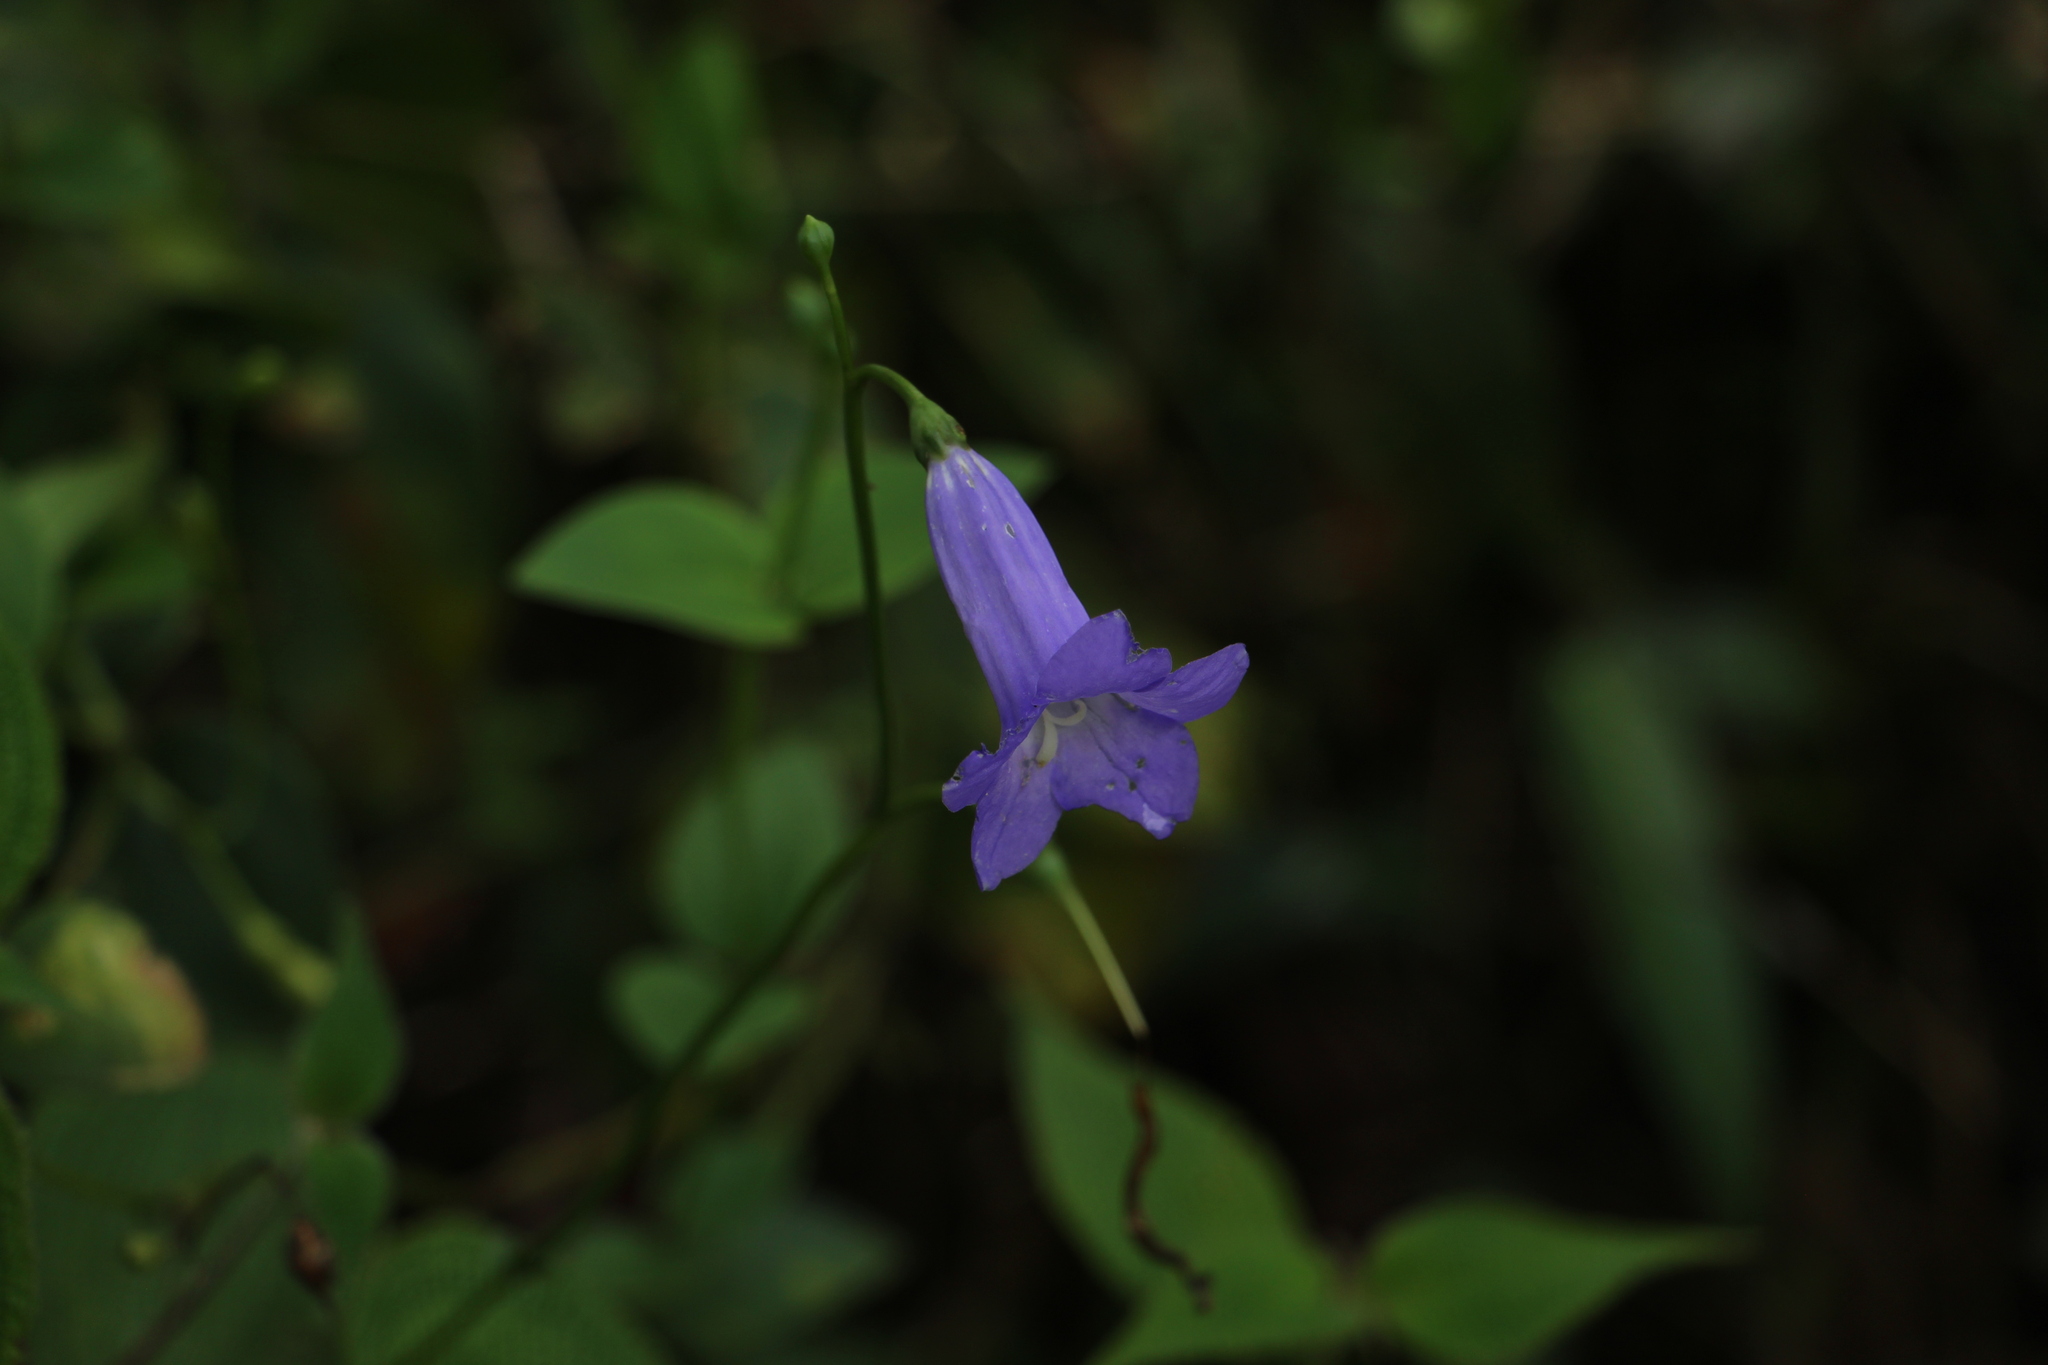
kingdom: Plantae
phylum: Tracheophyta
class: Magnoliopsida
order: Gentianales
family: Gentianaceae
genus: Chelonanthus
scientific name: Chelonanthus purpurascens
